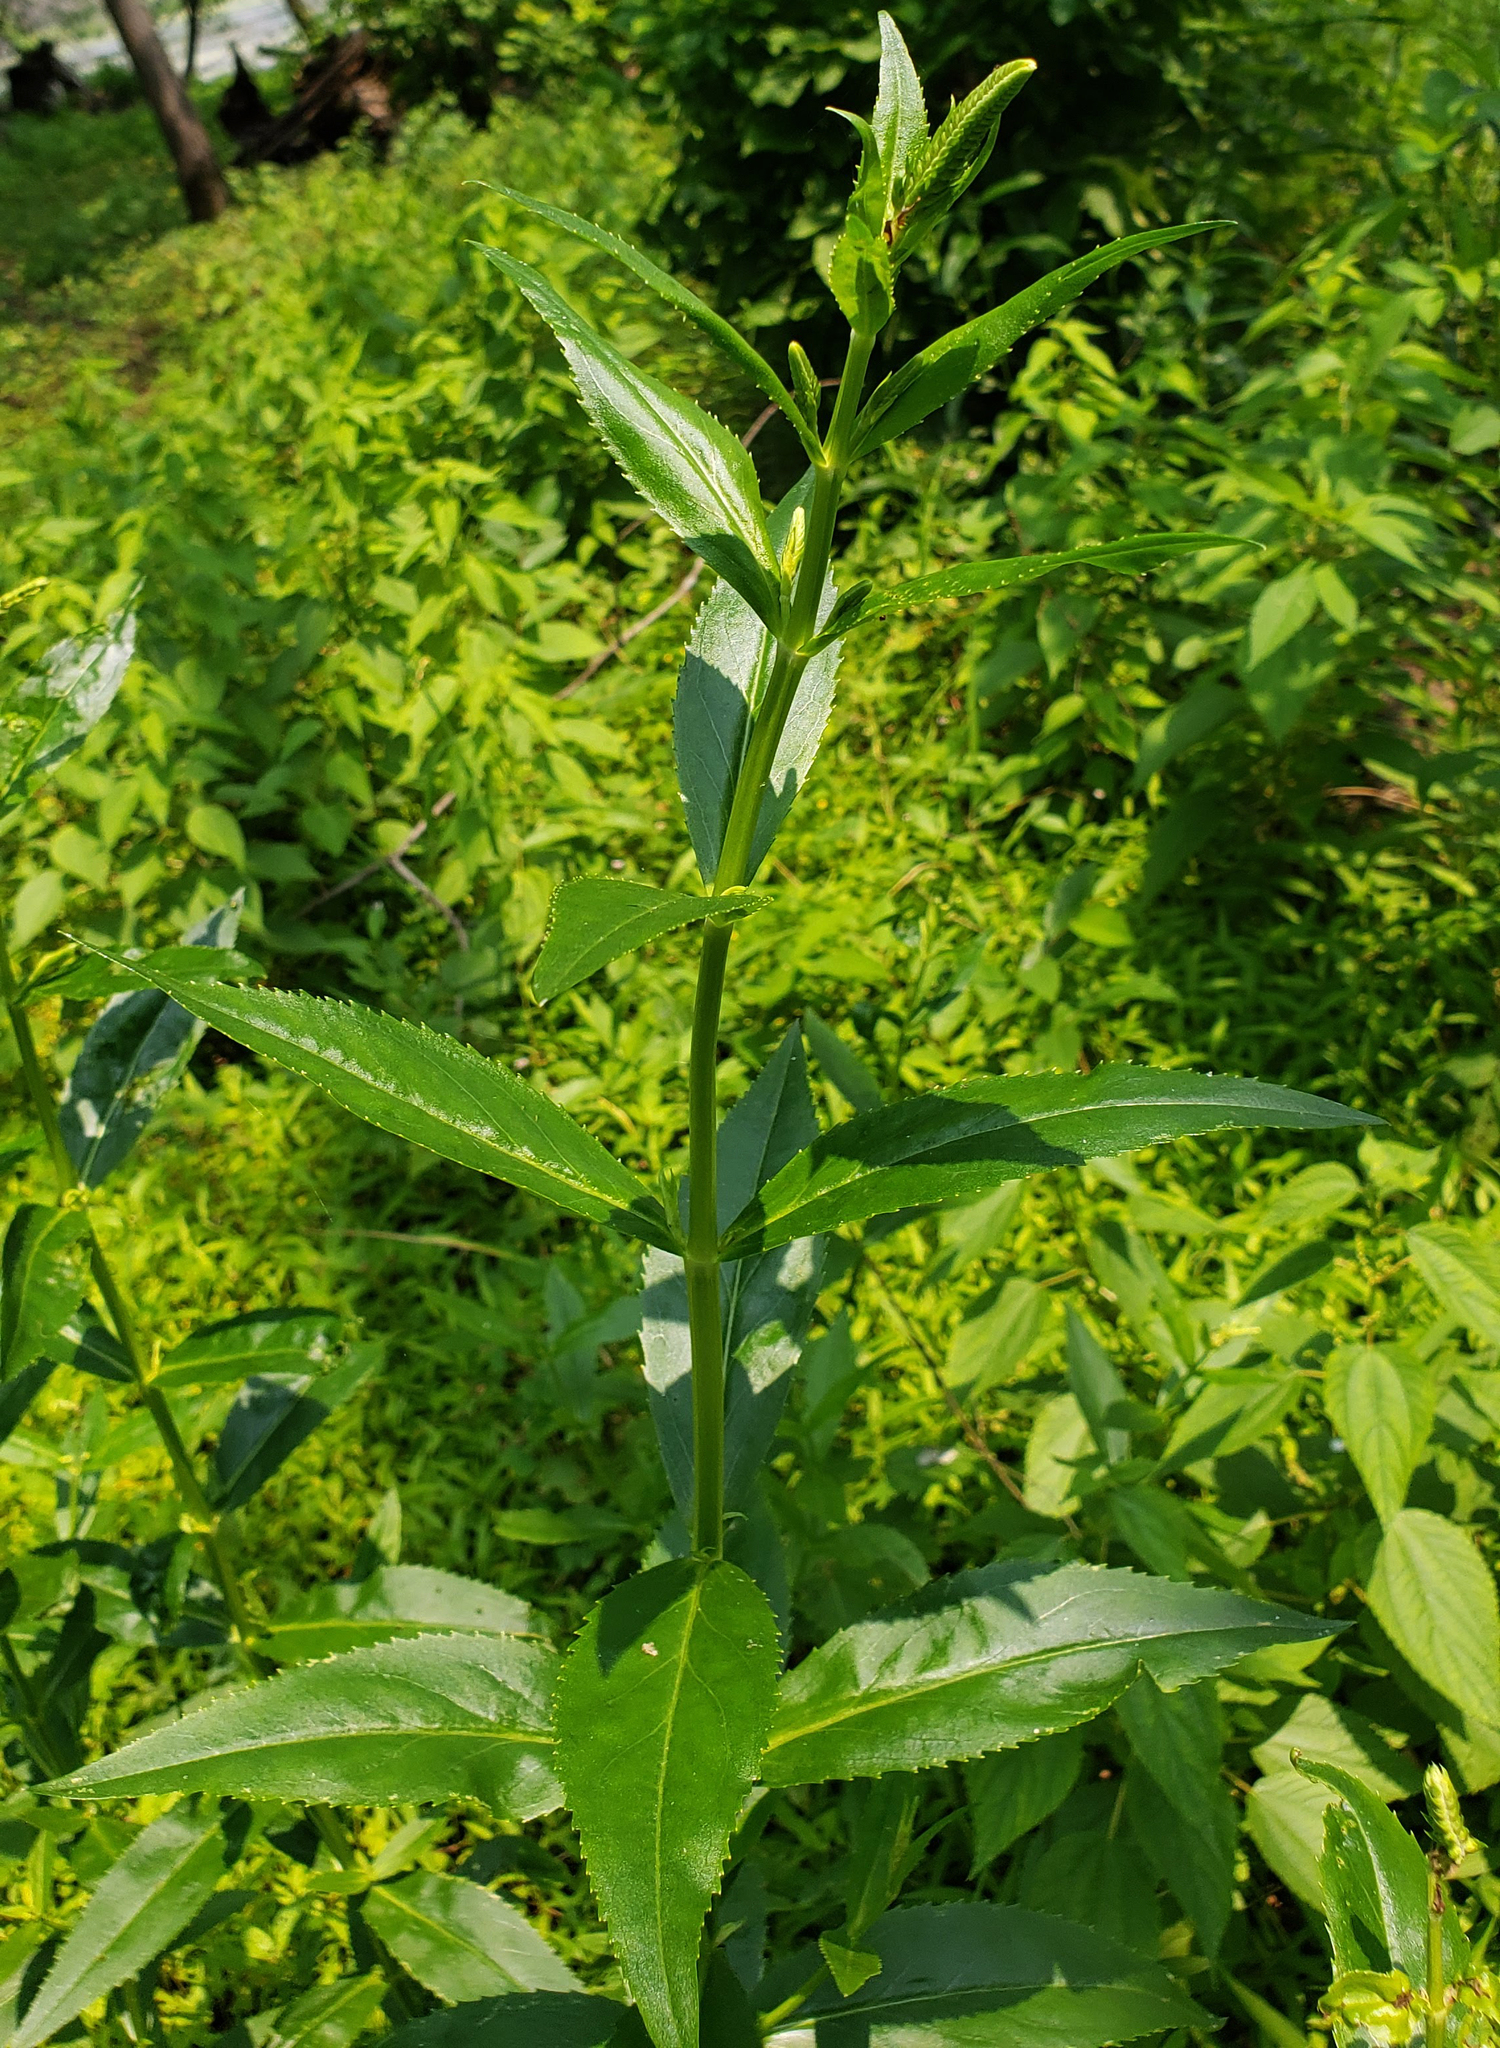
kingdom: Plantae
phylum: Tracheophyta
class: Magnoliopsida
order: Lamiales
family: Lamiaceae
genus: Physostegia
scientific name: Physostegia virginiana
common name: Obedient-plant
